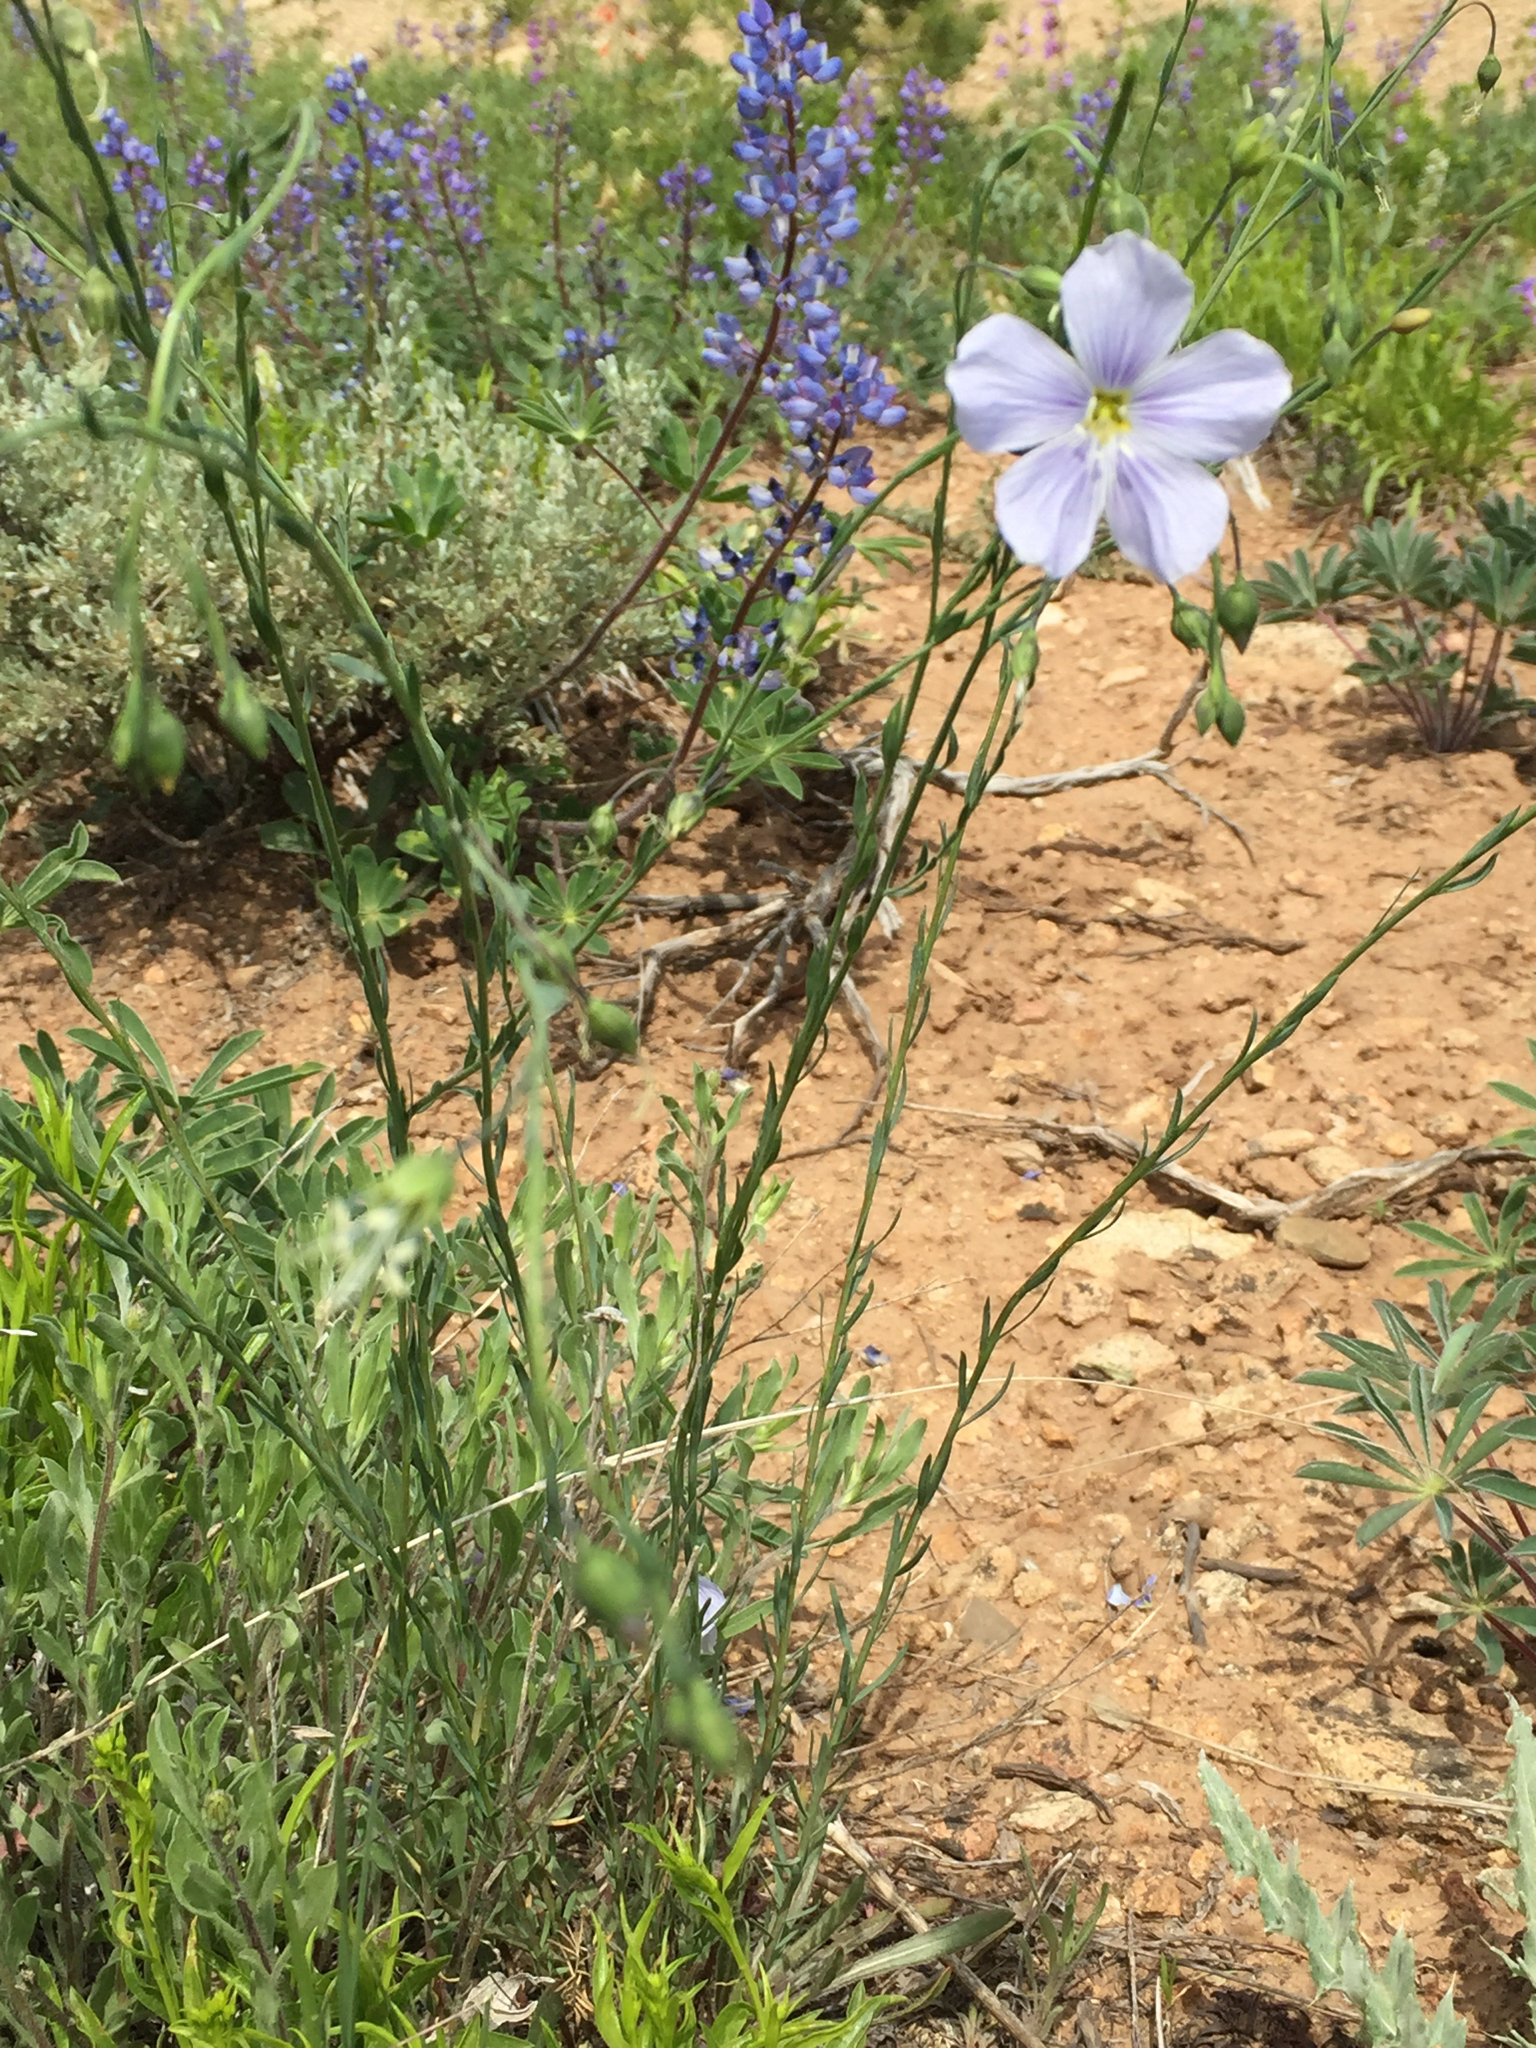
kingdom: Plantae
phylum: Tracheophyta
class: Magnoliopsida
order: Malpighiales
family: Linaceae
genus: Linum
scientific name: Linum lewisii
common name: Prairie flax
